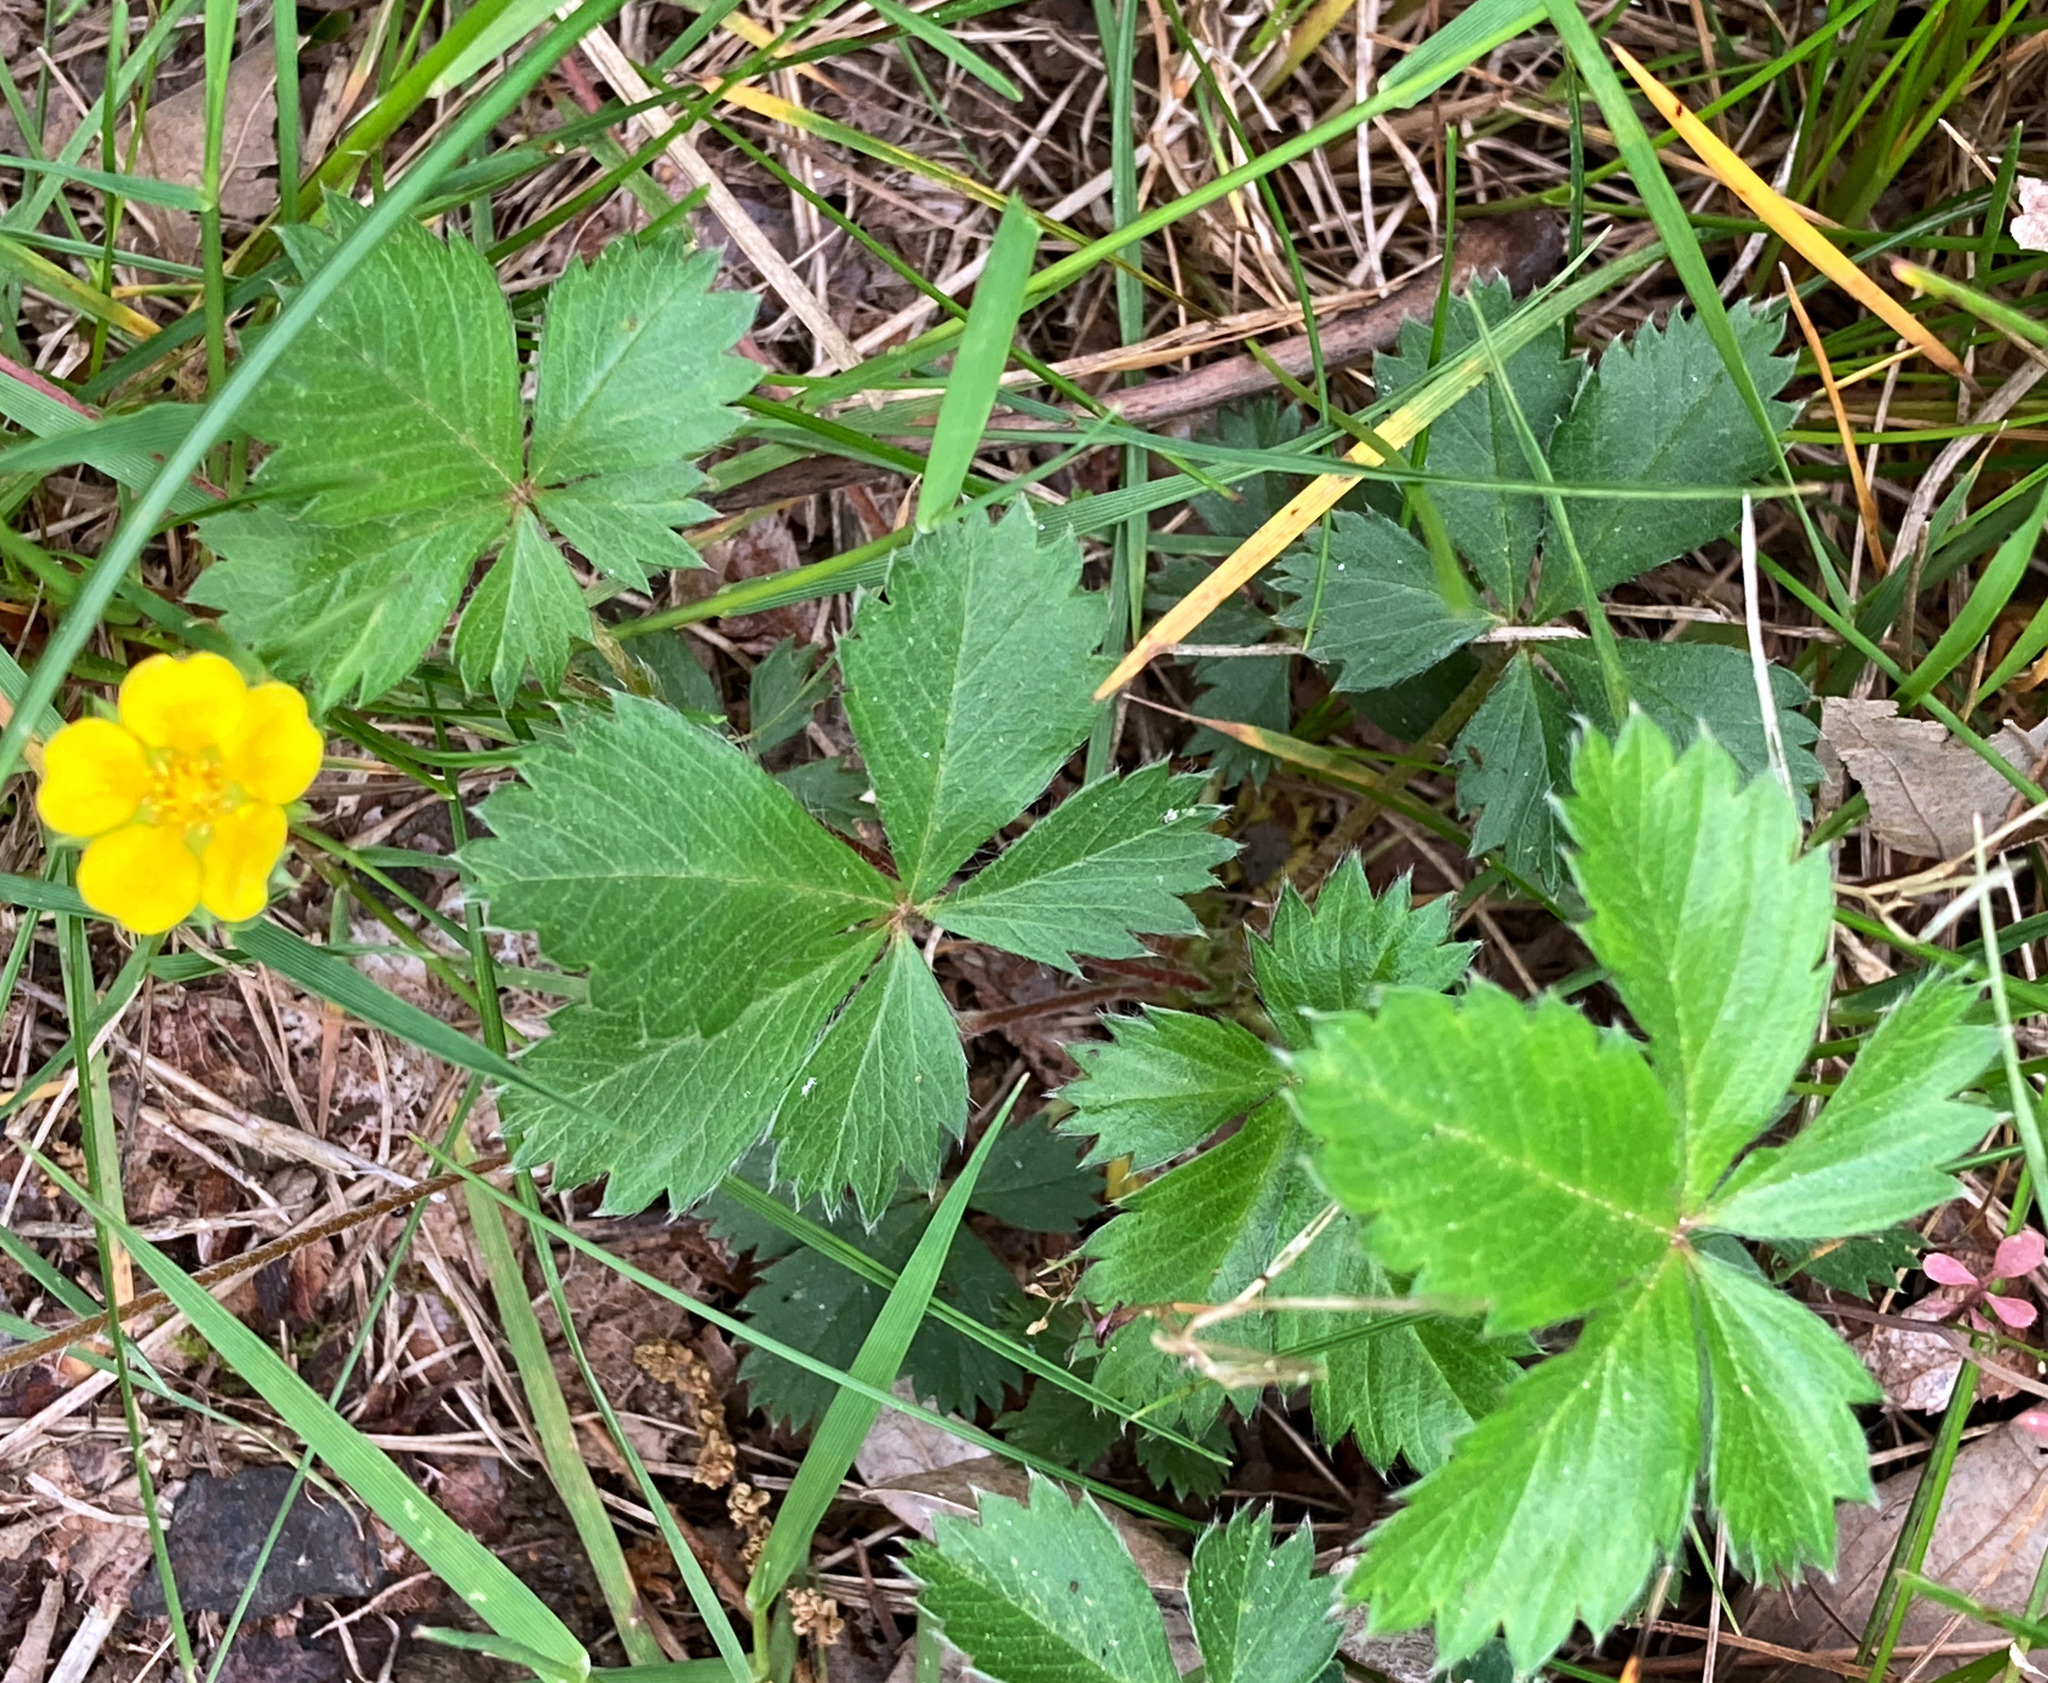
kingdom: Plantae
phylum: Tracheophyta
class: Magnoliopsida
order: Rosales
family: Rosaceae
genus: Potentilla
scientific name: Potentilla canadensis
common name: Canada cinquefoil
